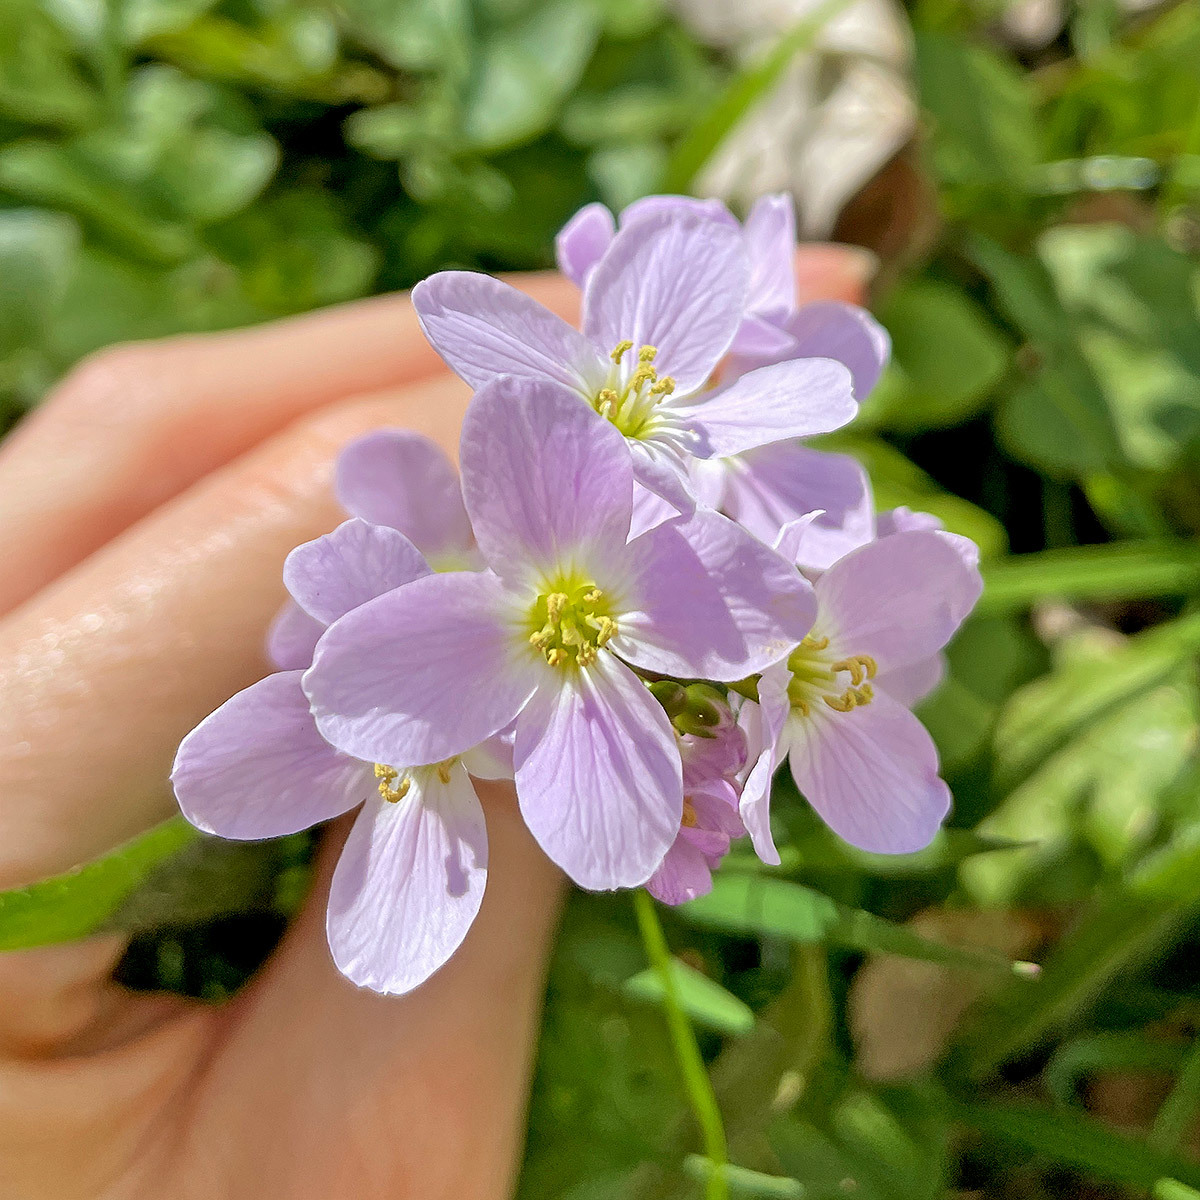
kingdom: Plantae
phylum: Tracheophyta
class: Magnoliopsida
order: Brassicales
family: Brassicaceae
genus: Cardamine
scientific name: Cardamine pratensis
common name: Cuckoo flower
